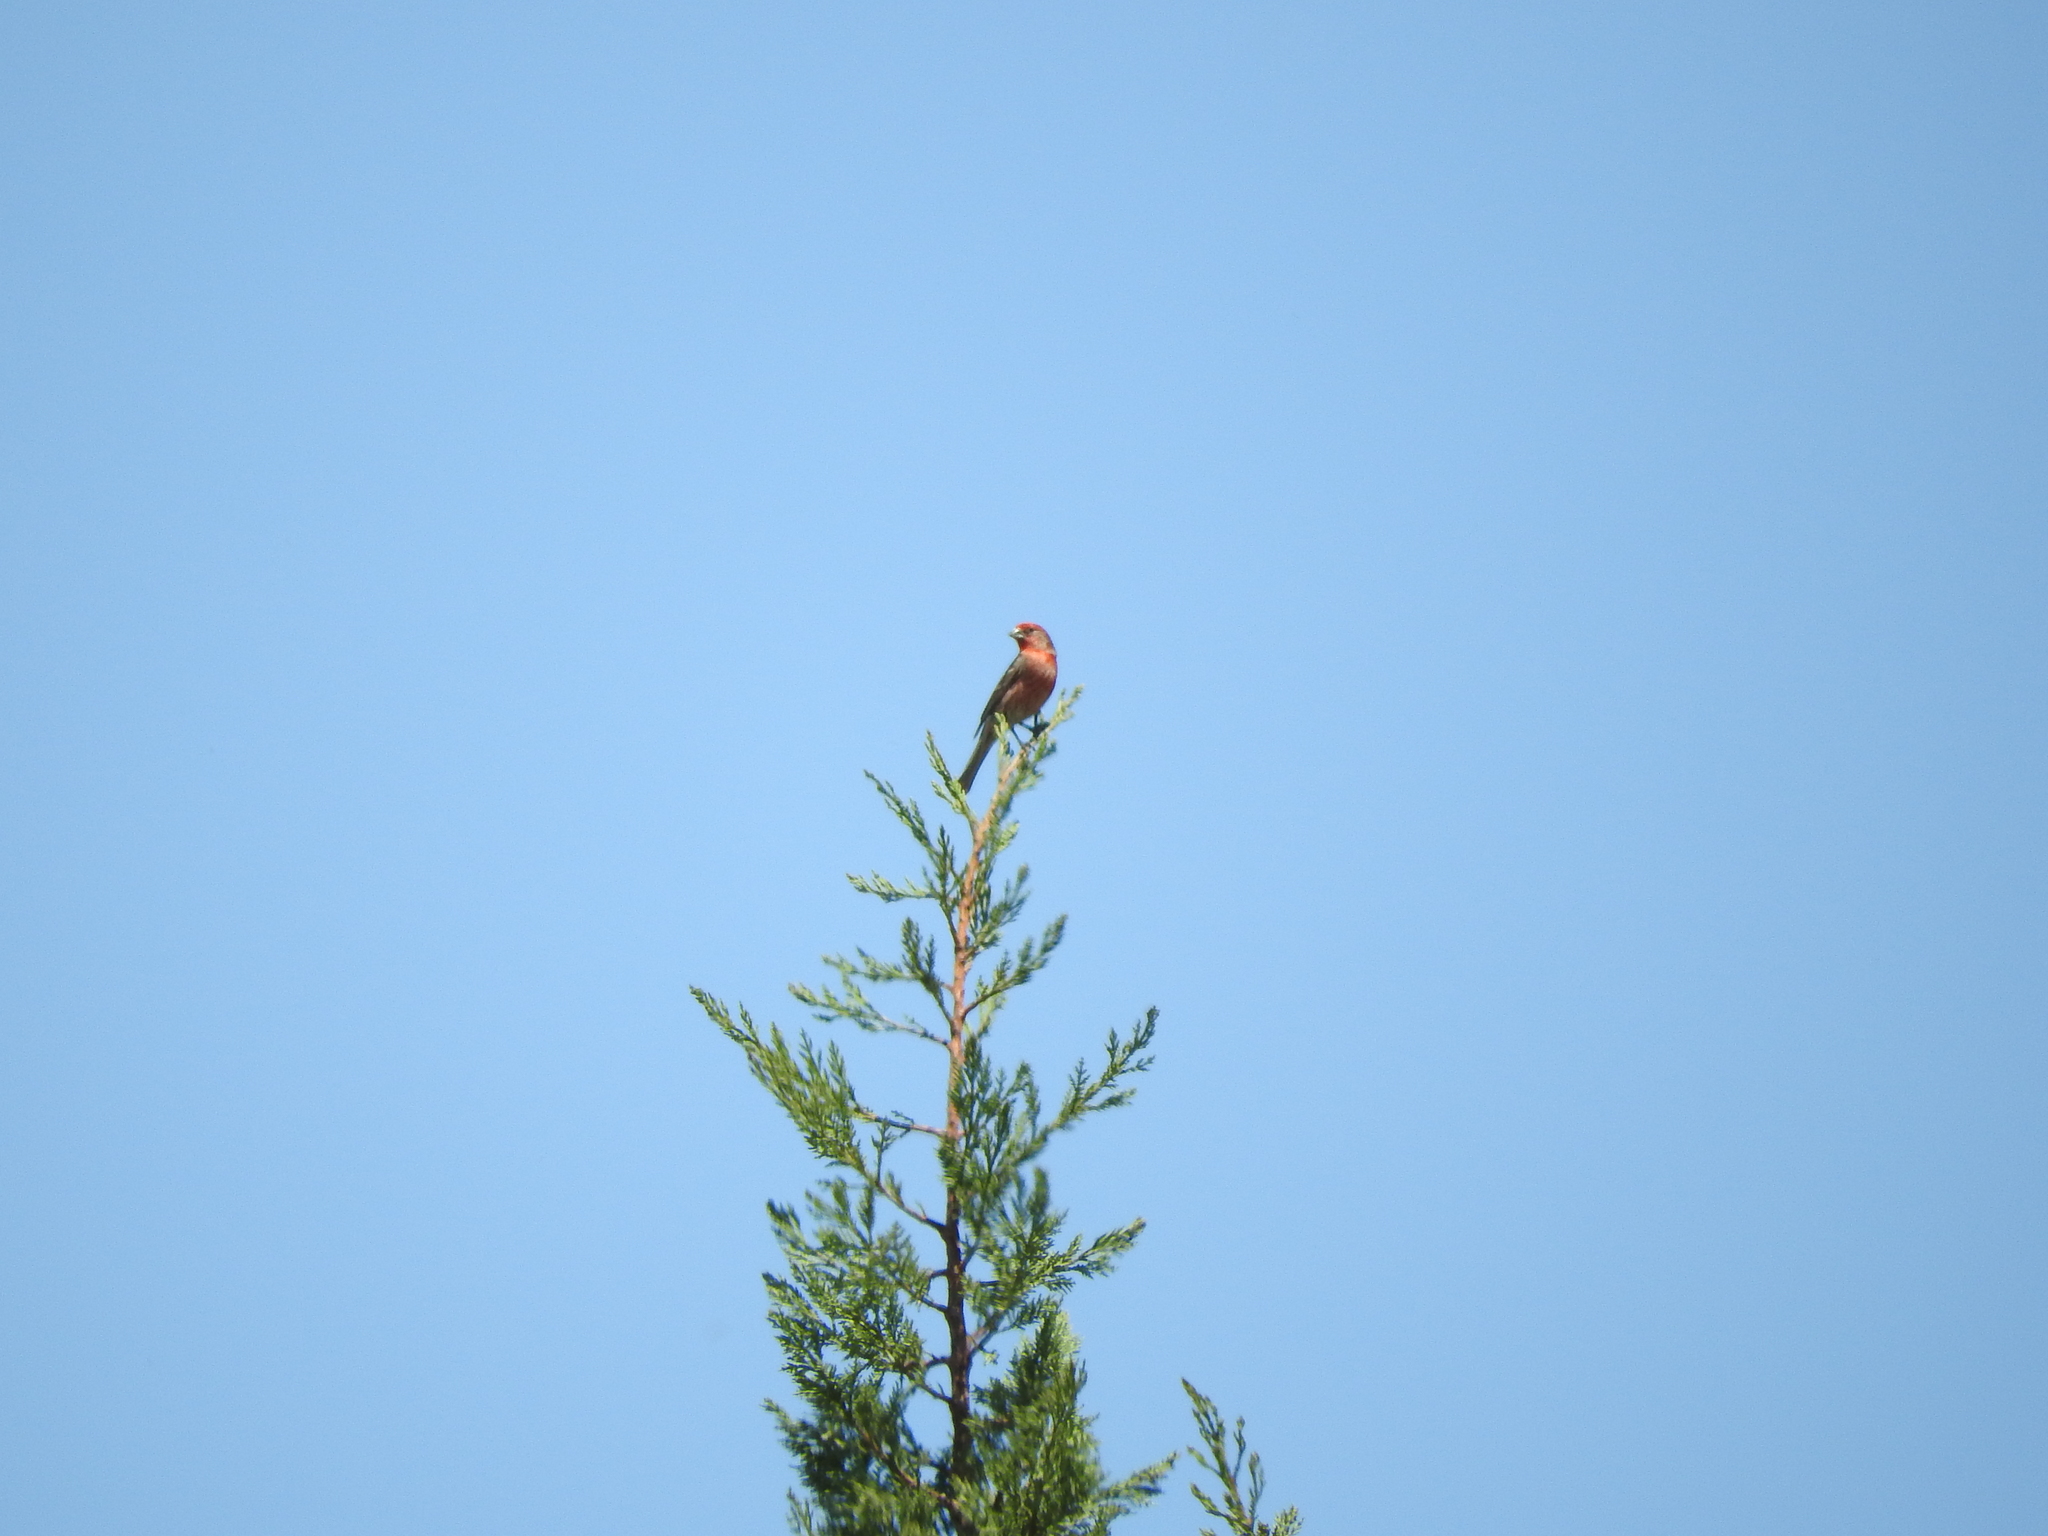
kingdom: Animalia
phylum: Chordata
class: Aves
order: Passeriformes
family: Fringillidae
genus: Haemorhous
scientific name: Haemorhous mexicanus
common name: House finch
